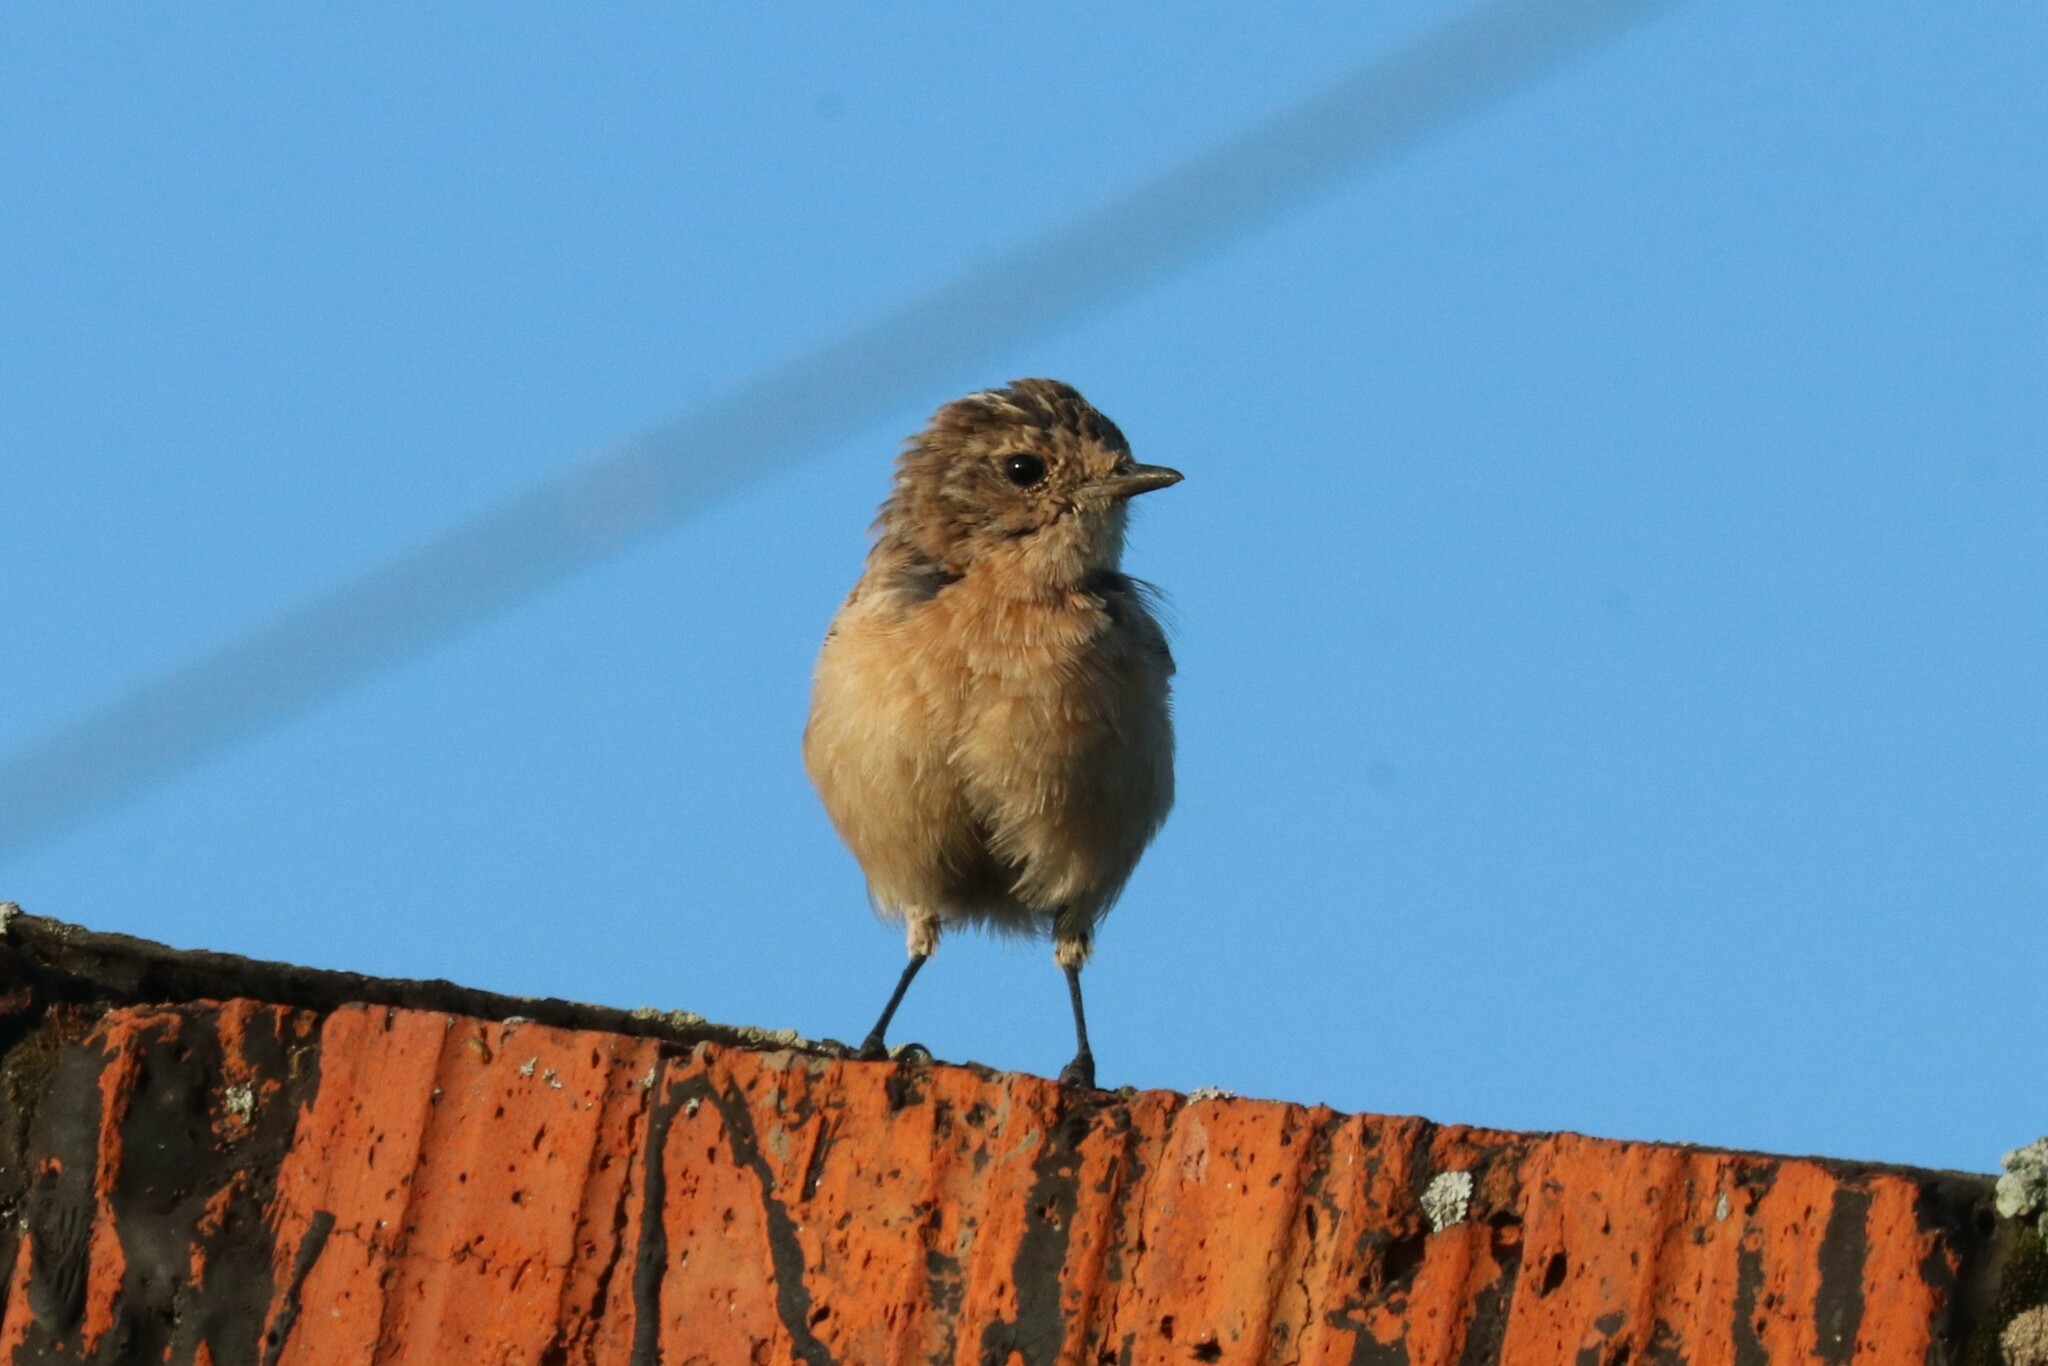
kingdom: Animalia
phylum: Chordata
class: Aves
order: Passeriformes
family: Muscicapidae
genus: Saxicola
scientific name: Saxicola maurus
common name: Siberian stonechat
